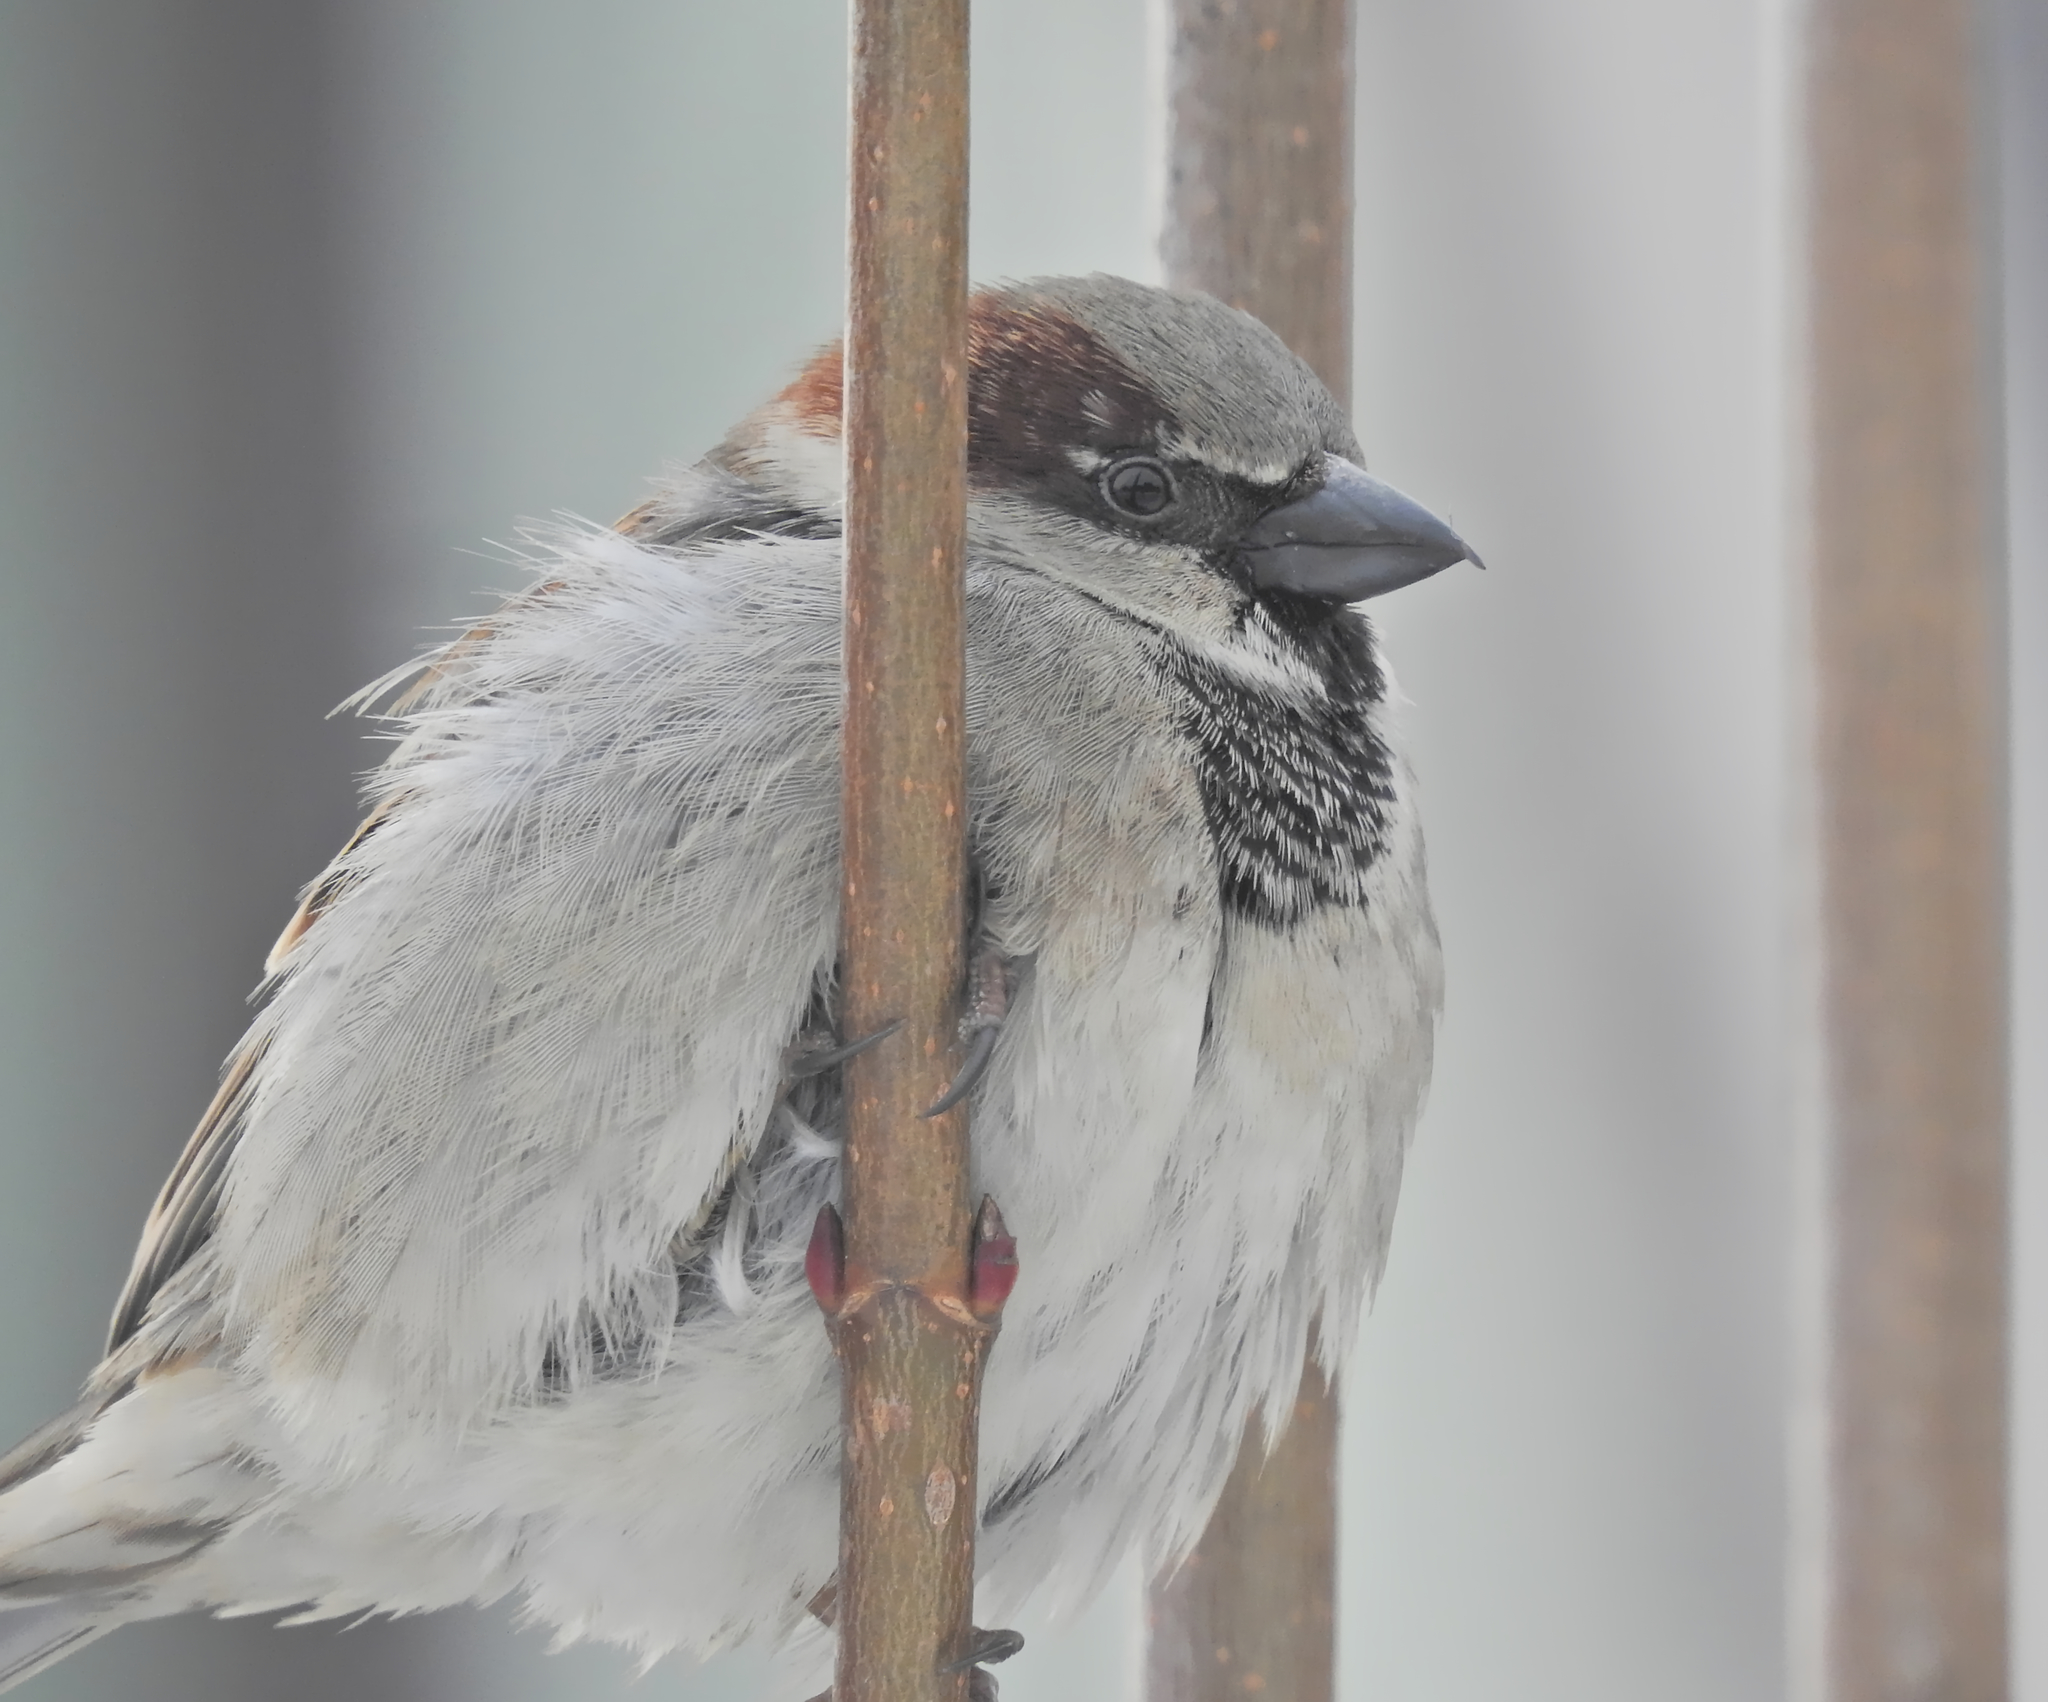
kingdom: Animalia
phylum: Chordata
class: Aves
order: Passeriformes
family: Passeridae
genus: Passer
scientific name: Passer domesticus
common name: House sparrow
